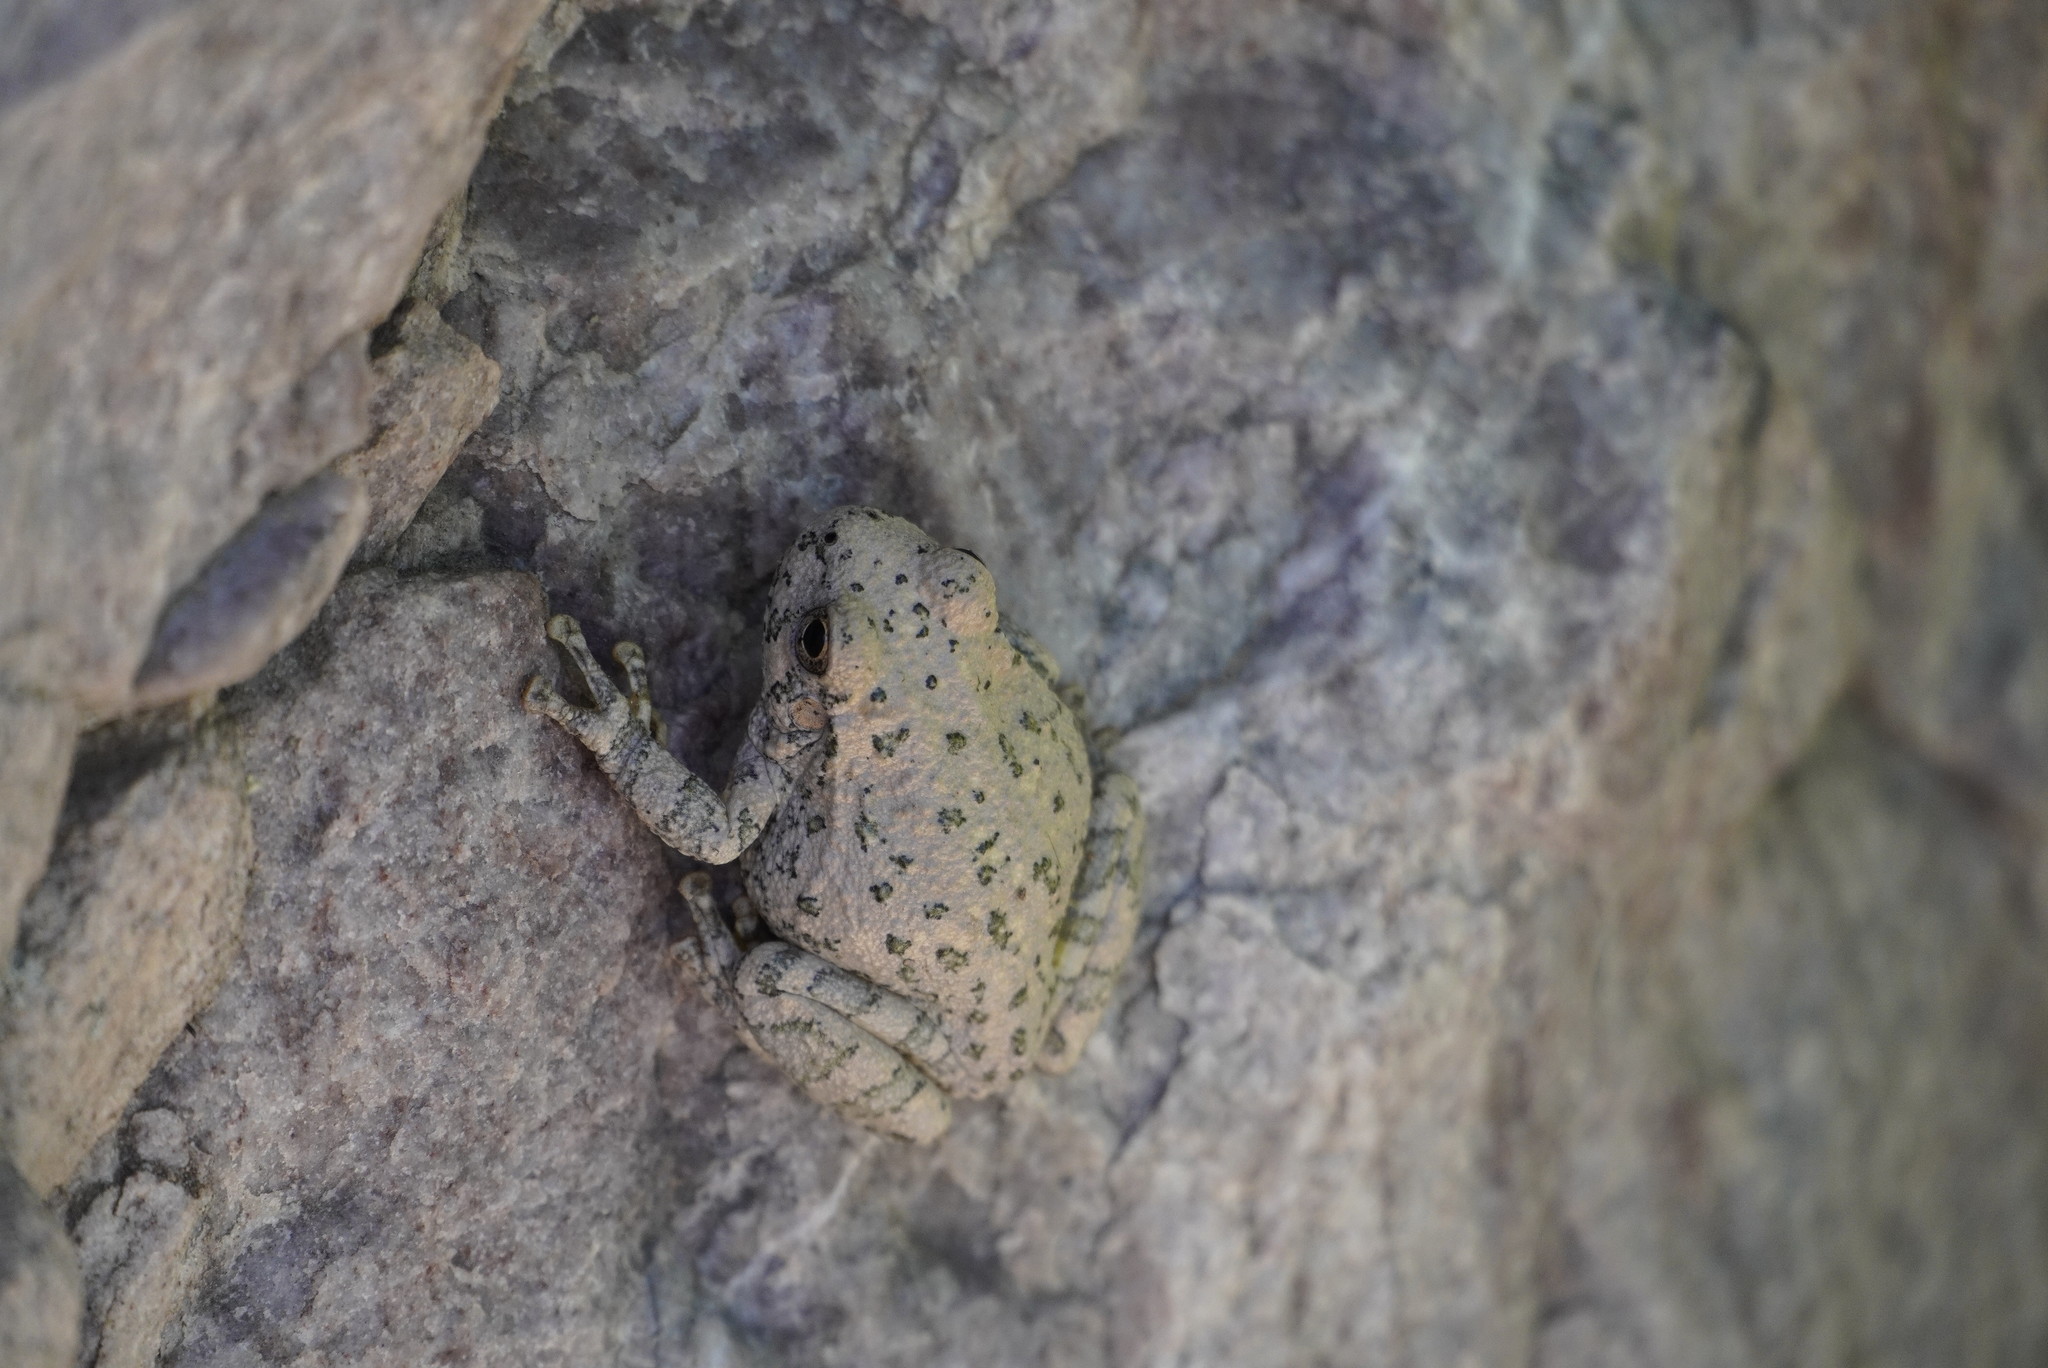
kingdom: Animalia
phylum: Chordata
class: Amphibia
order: Anura
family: Hylidae
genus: Dryophytes
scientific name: Dryophytes arenicolor
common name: Canyon treefrog
